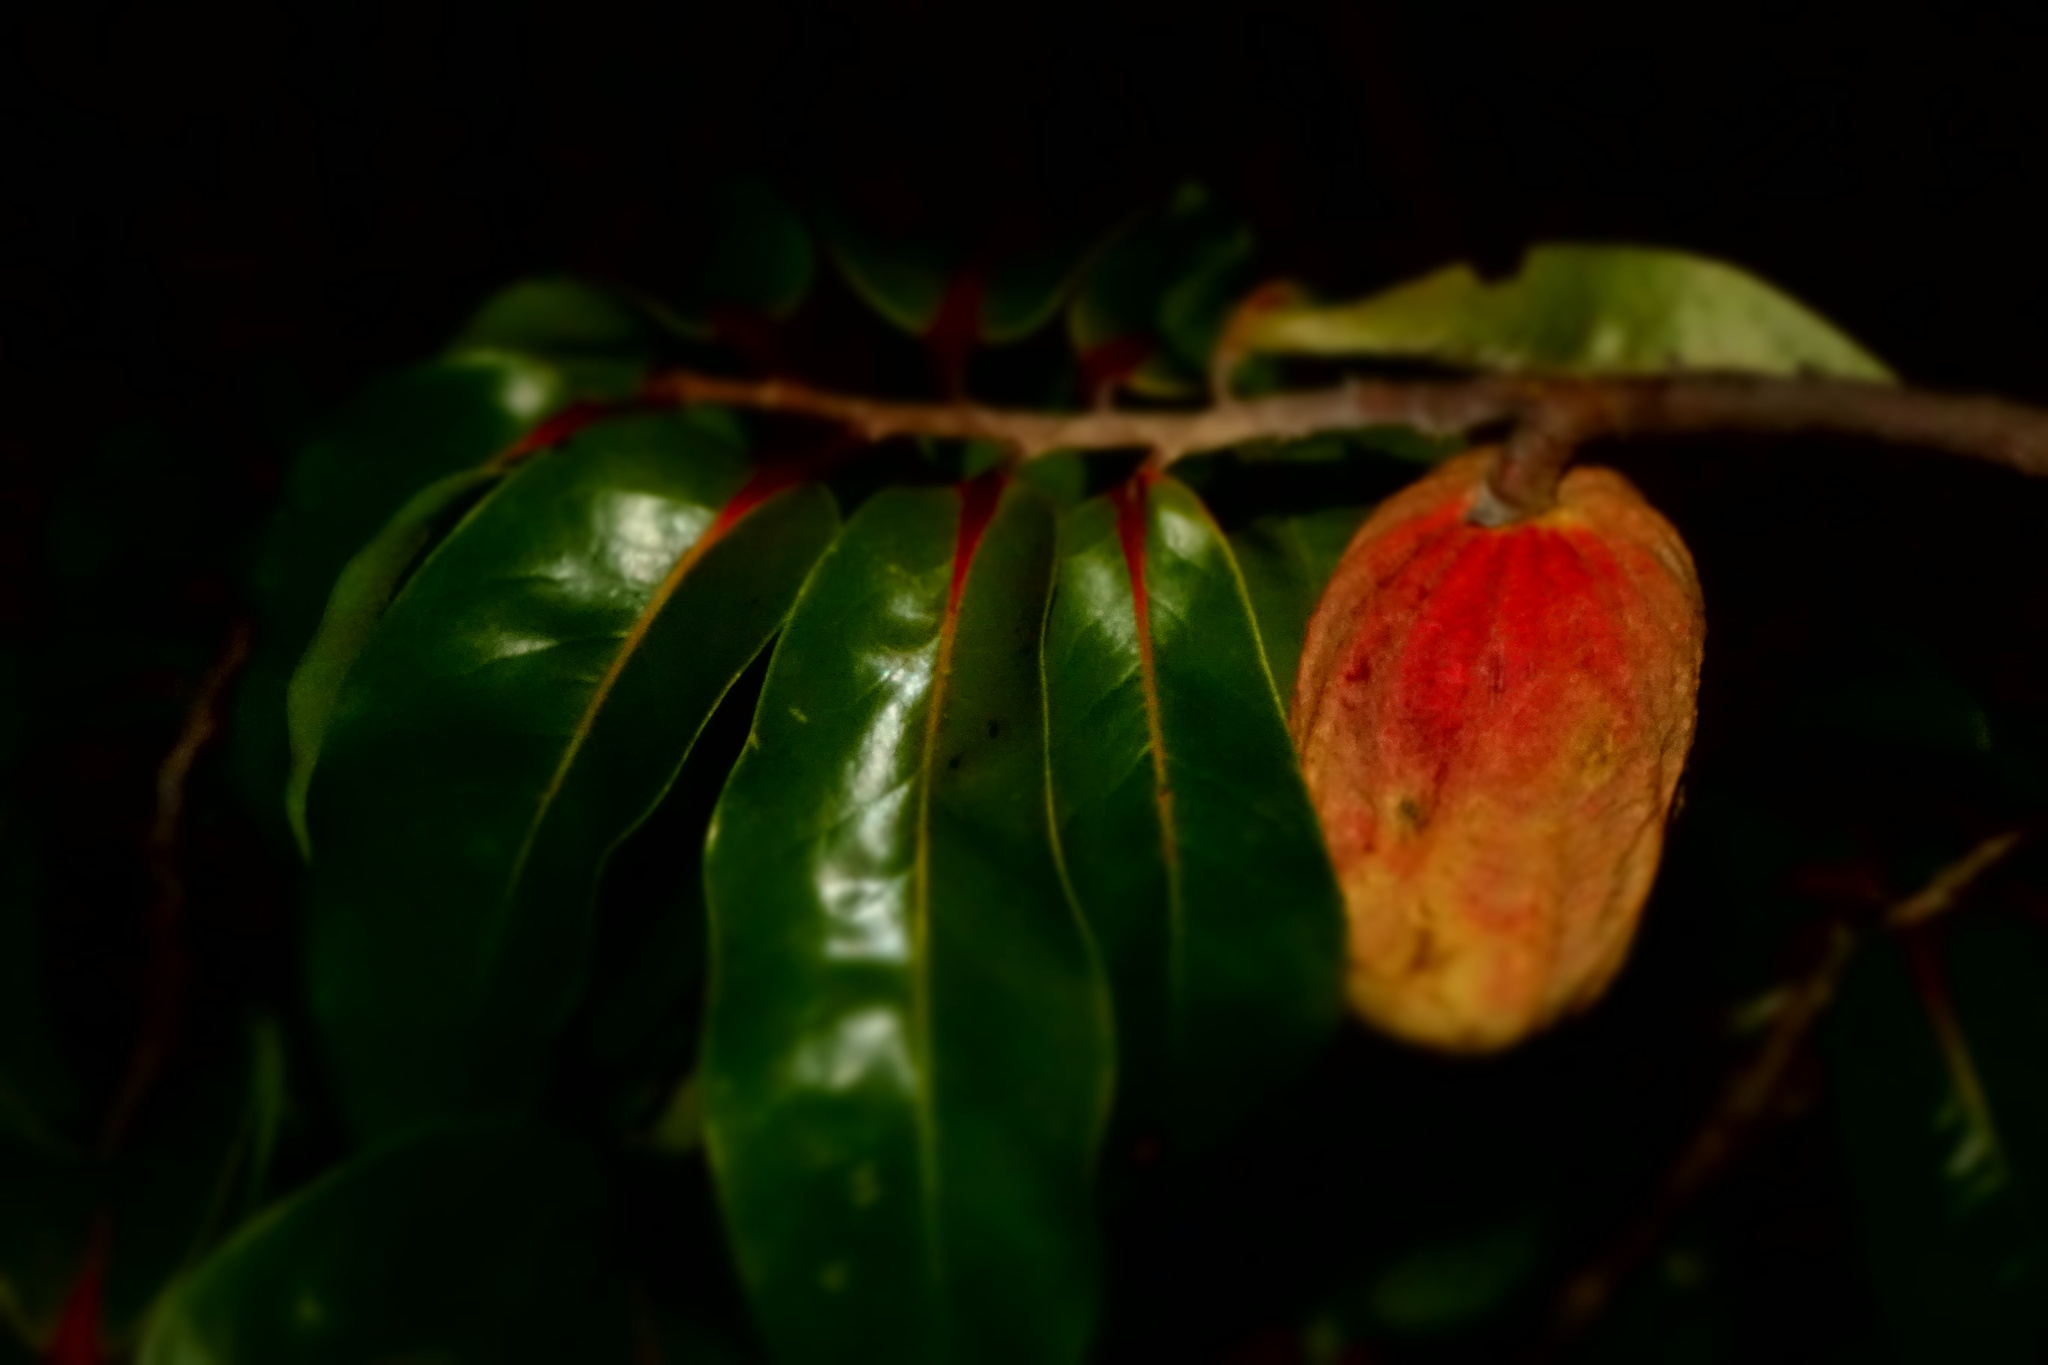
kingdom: Plantae
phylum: Tracheophyta
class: Magnoliopsida
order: Magnoliales
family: Annonaceae
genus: Xylopia
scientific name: Xylopia sericolampra
